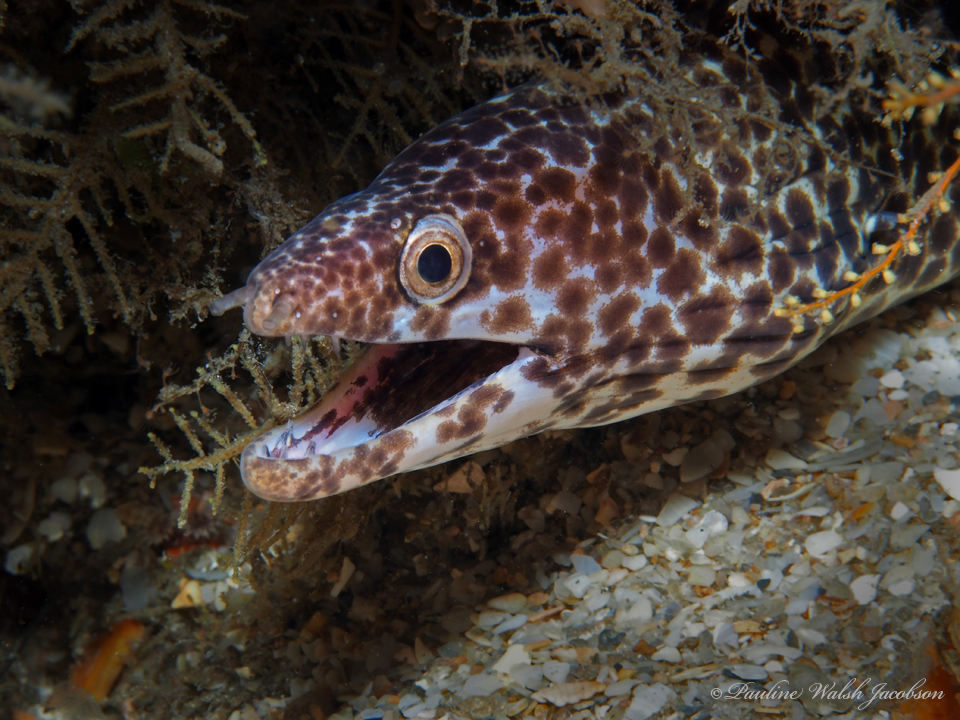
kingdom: Animalia
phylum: Chordata
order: Anguilliformes
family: Muraenidae
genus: Gymnothorax
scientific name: Gymnothorax moringa
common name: Spotted moray
